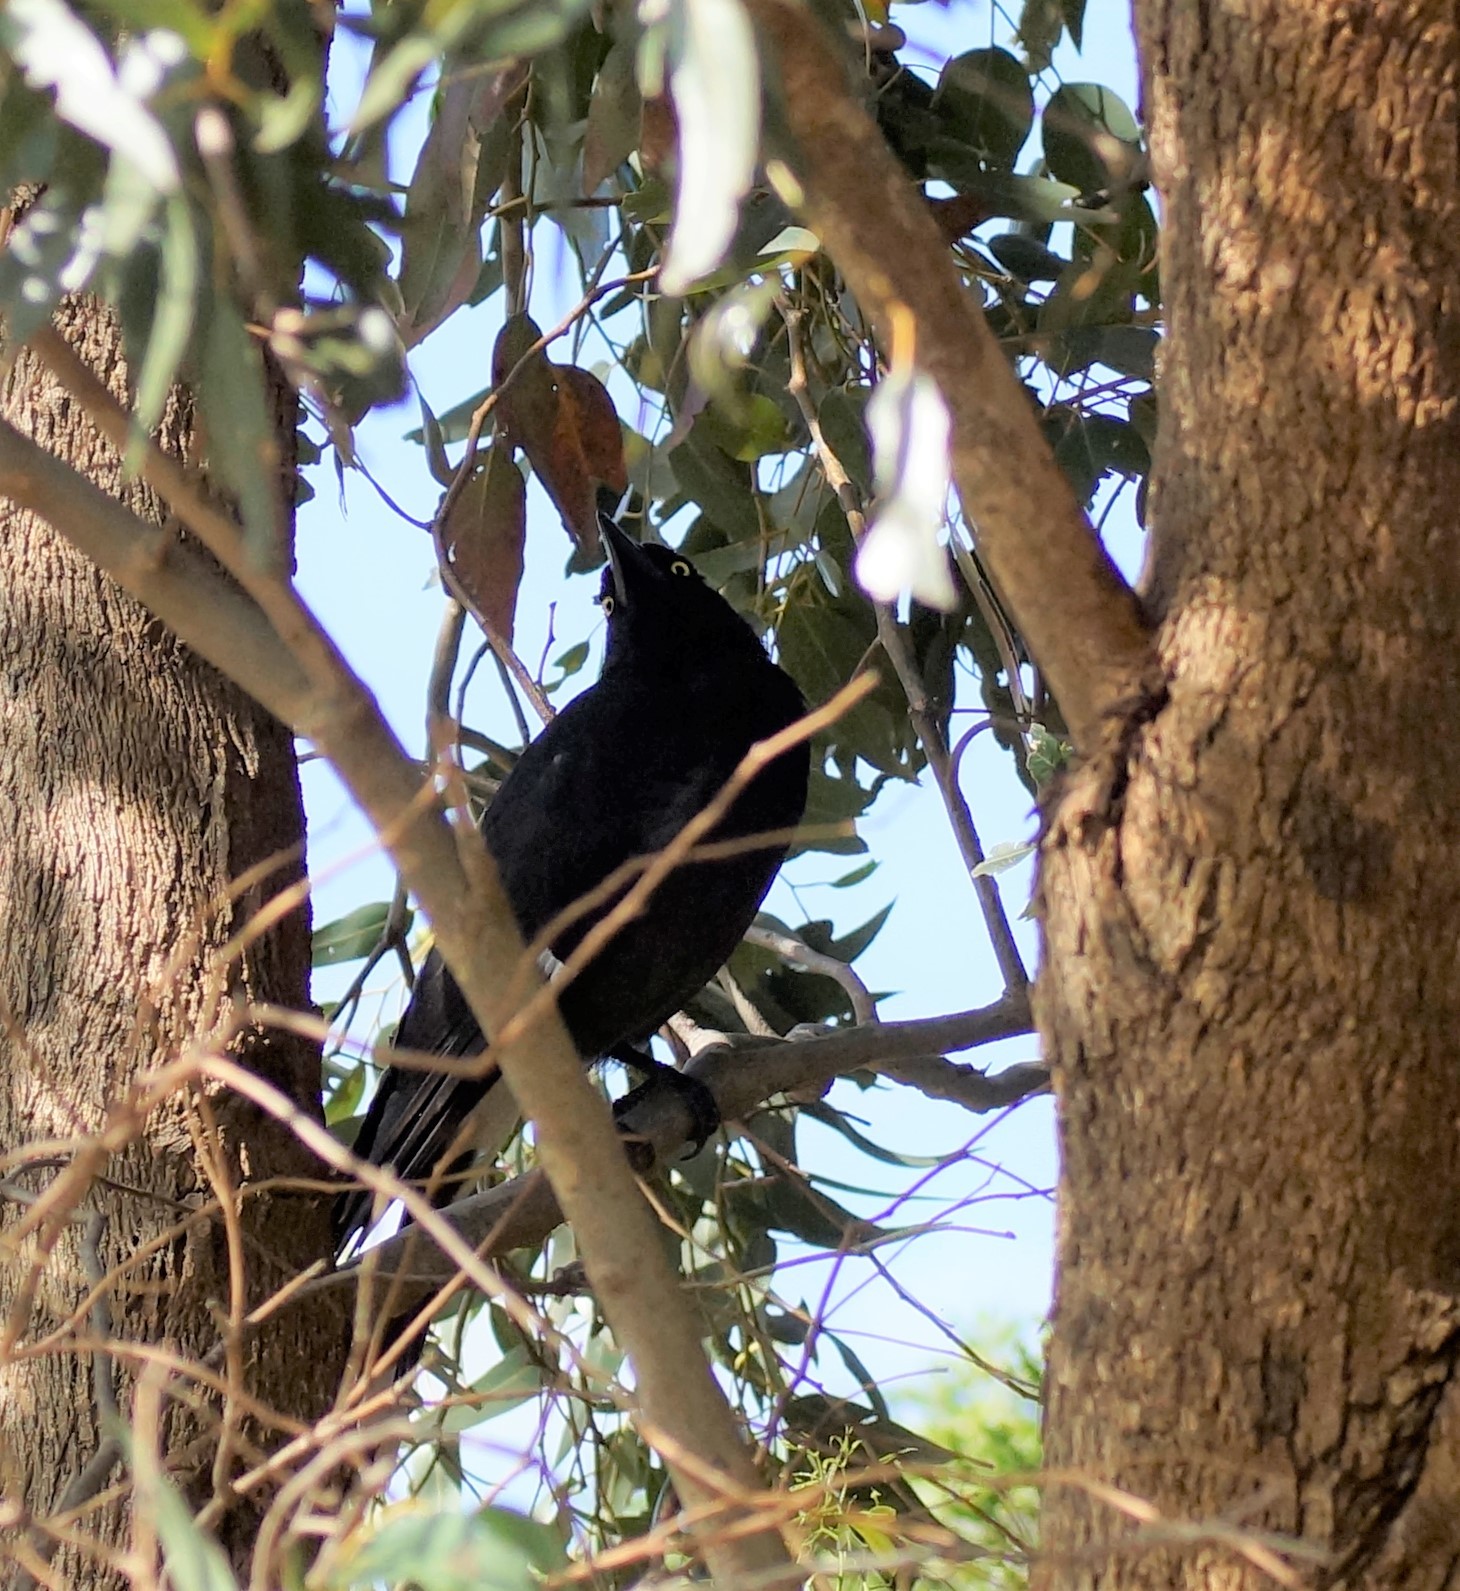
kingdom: Animalia
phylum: Chordata
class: Aves
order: Passeriformes
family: Cracticidae
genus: Strepera
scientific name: Strepera graculina
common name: Pied currawong
